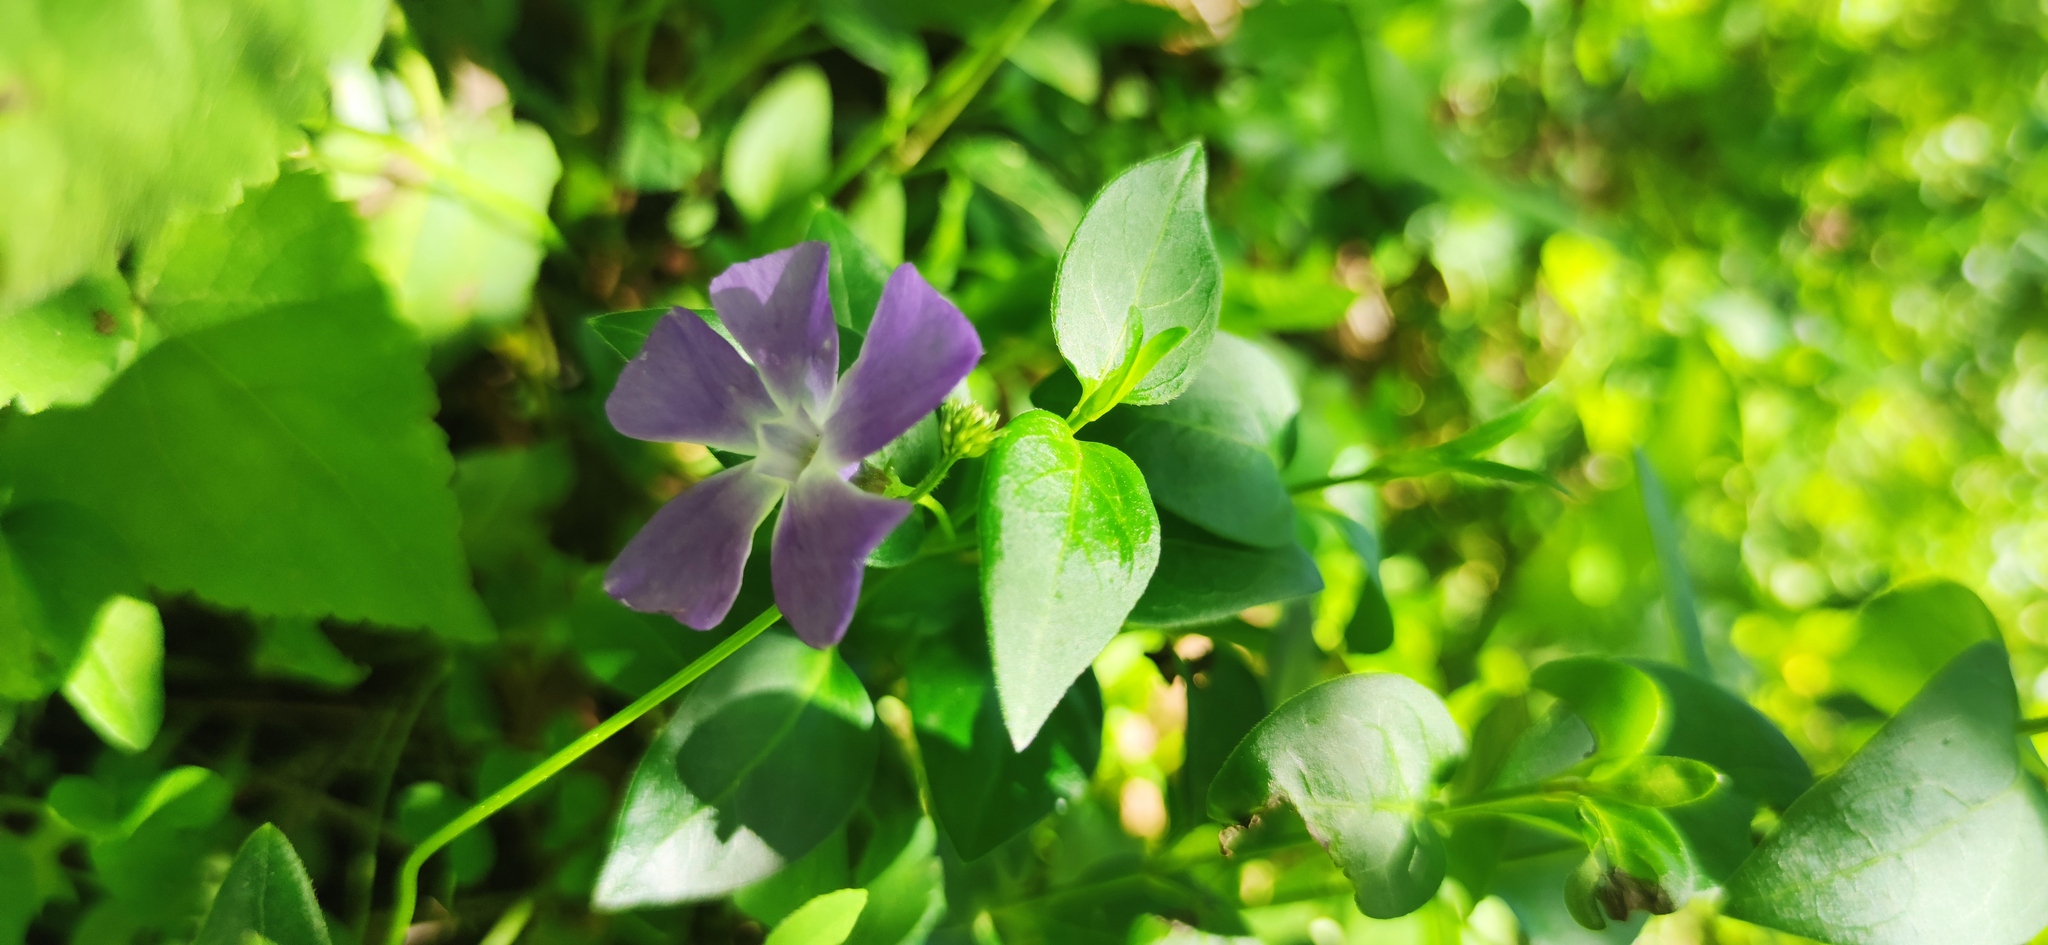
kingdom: Plantae
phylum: Tracheophyta
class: Magnoliopsida
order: Gentianales
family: Apocynaceae
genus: Vinca
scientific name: Vinca major
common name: Greater periwinkle
